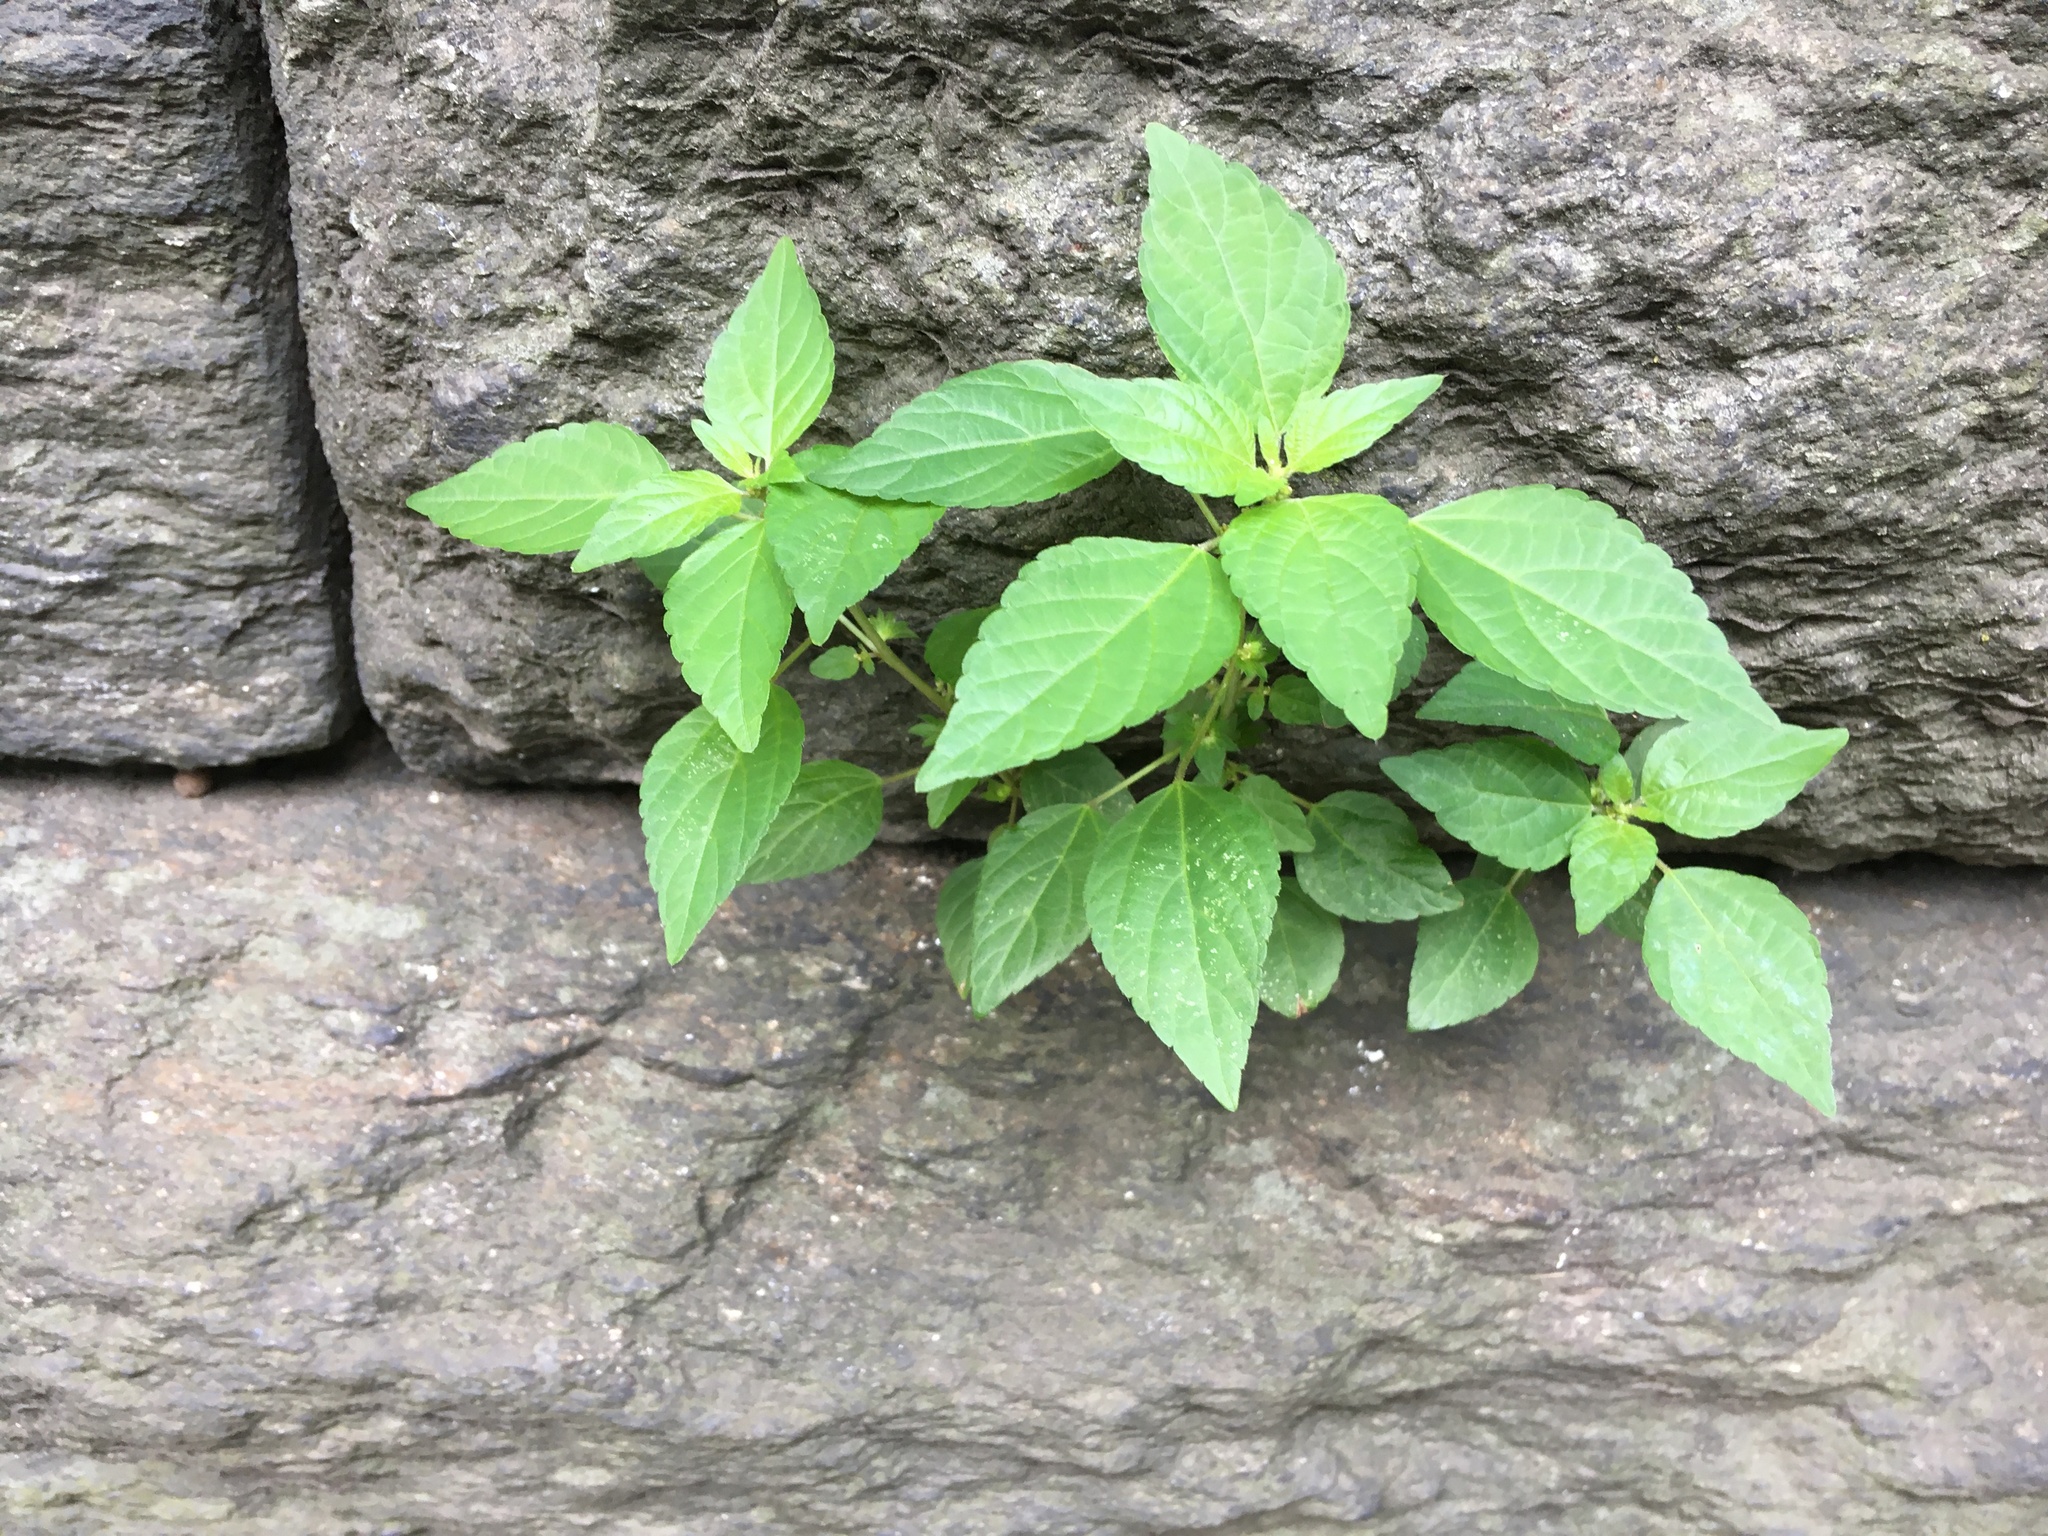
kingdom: Plantae
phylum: Tracheophyta
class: Magnoliopsida
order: Malpighiales
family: Euphorbiaceae
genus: Acalypha
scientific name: Acalypha rhomboidea
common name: Rhombic copperleaf
